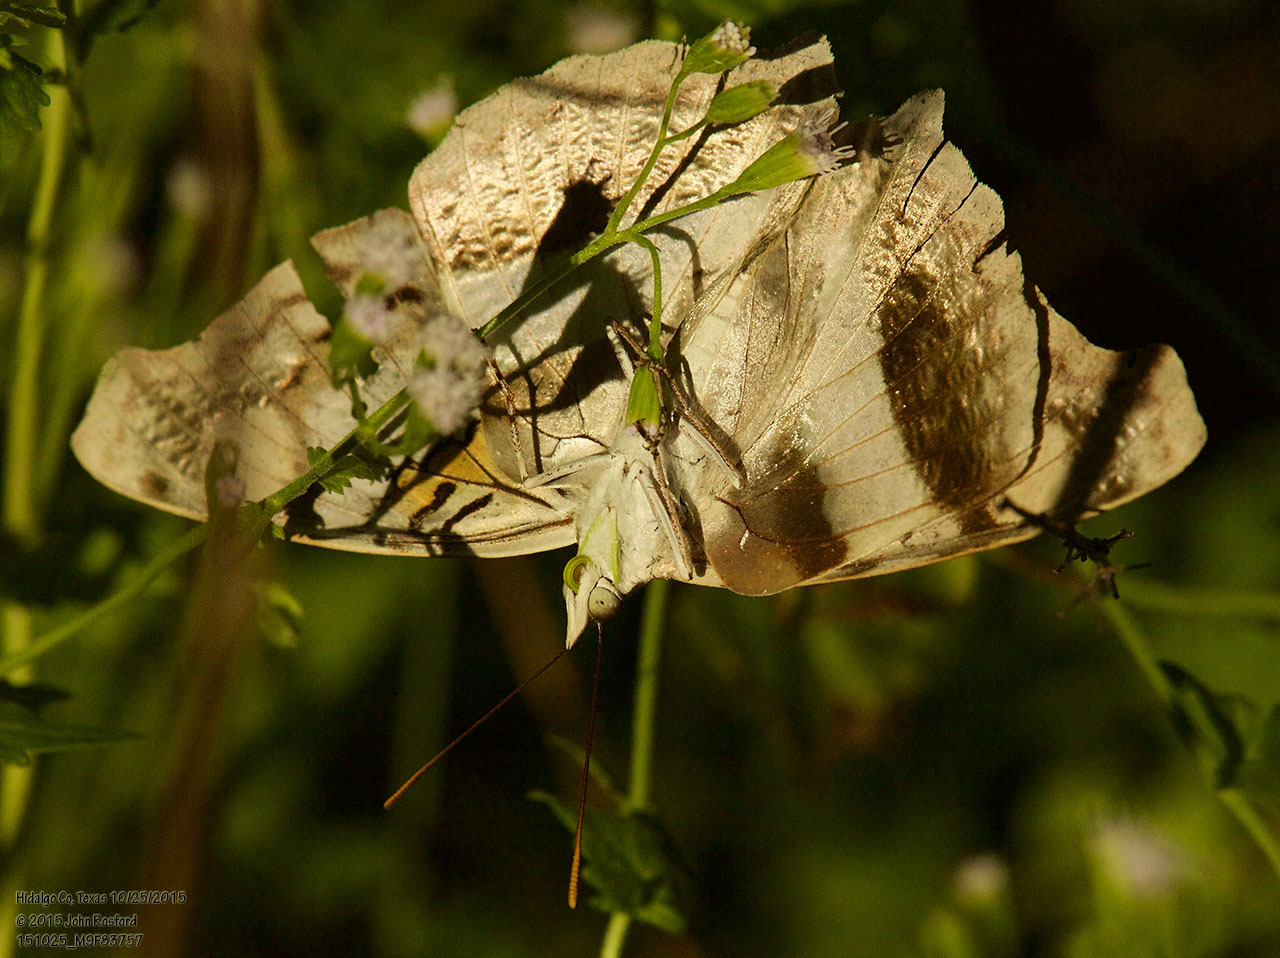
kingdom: Animalia
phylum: Arthropoda
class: Insecta
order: Lepidoptera
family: Nymphalidae
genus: Doxocopa
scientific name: Doxocopa laure
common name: Silver emperor
